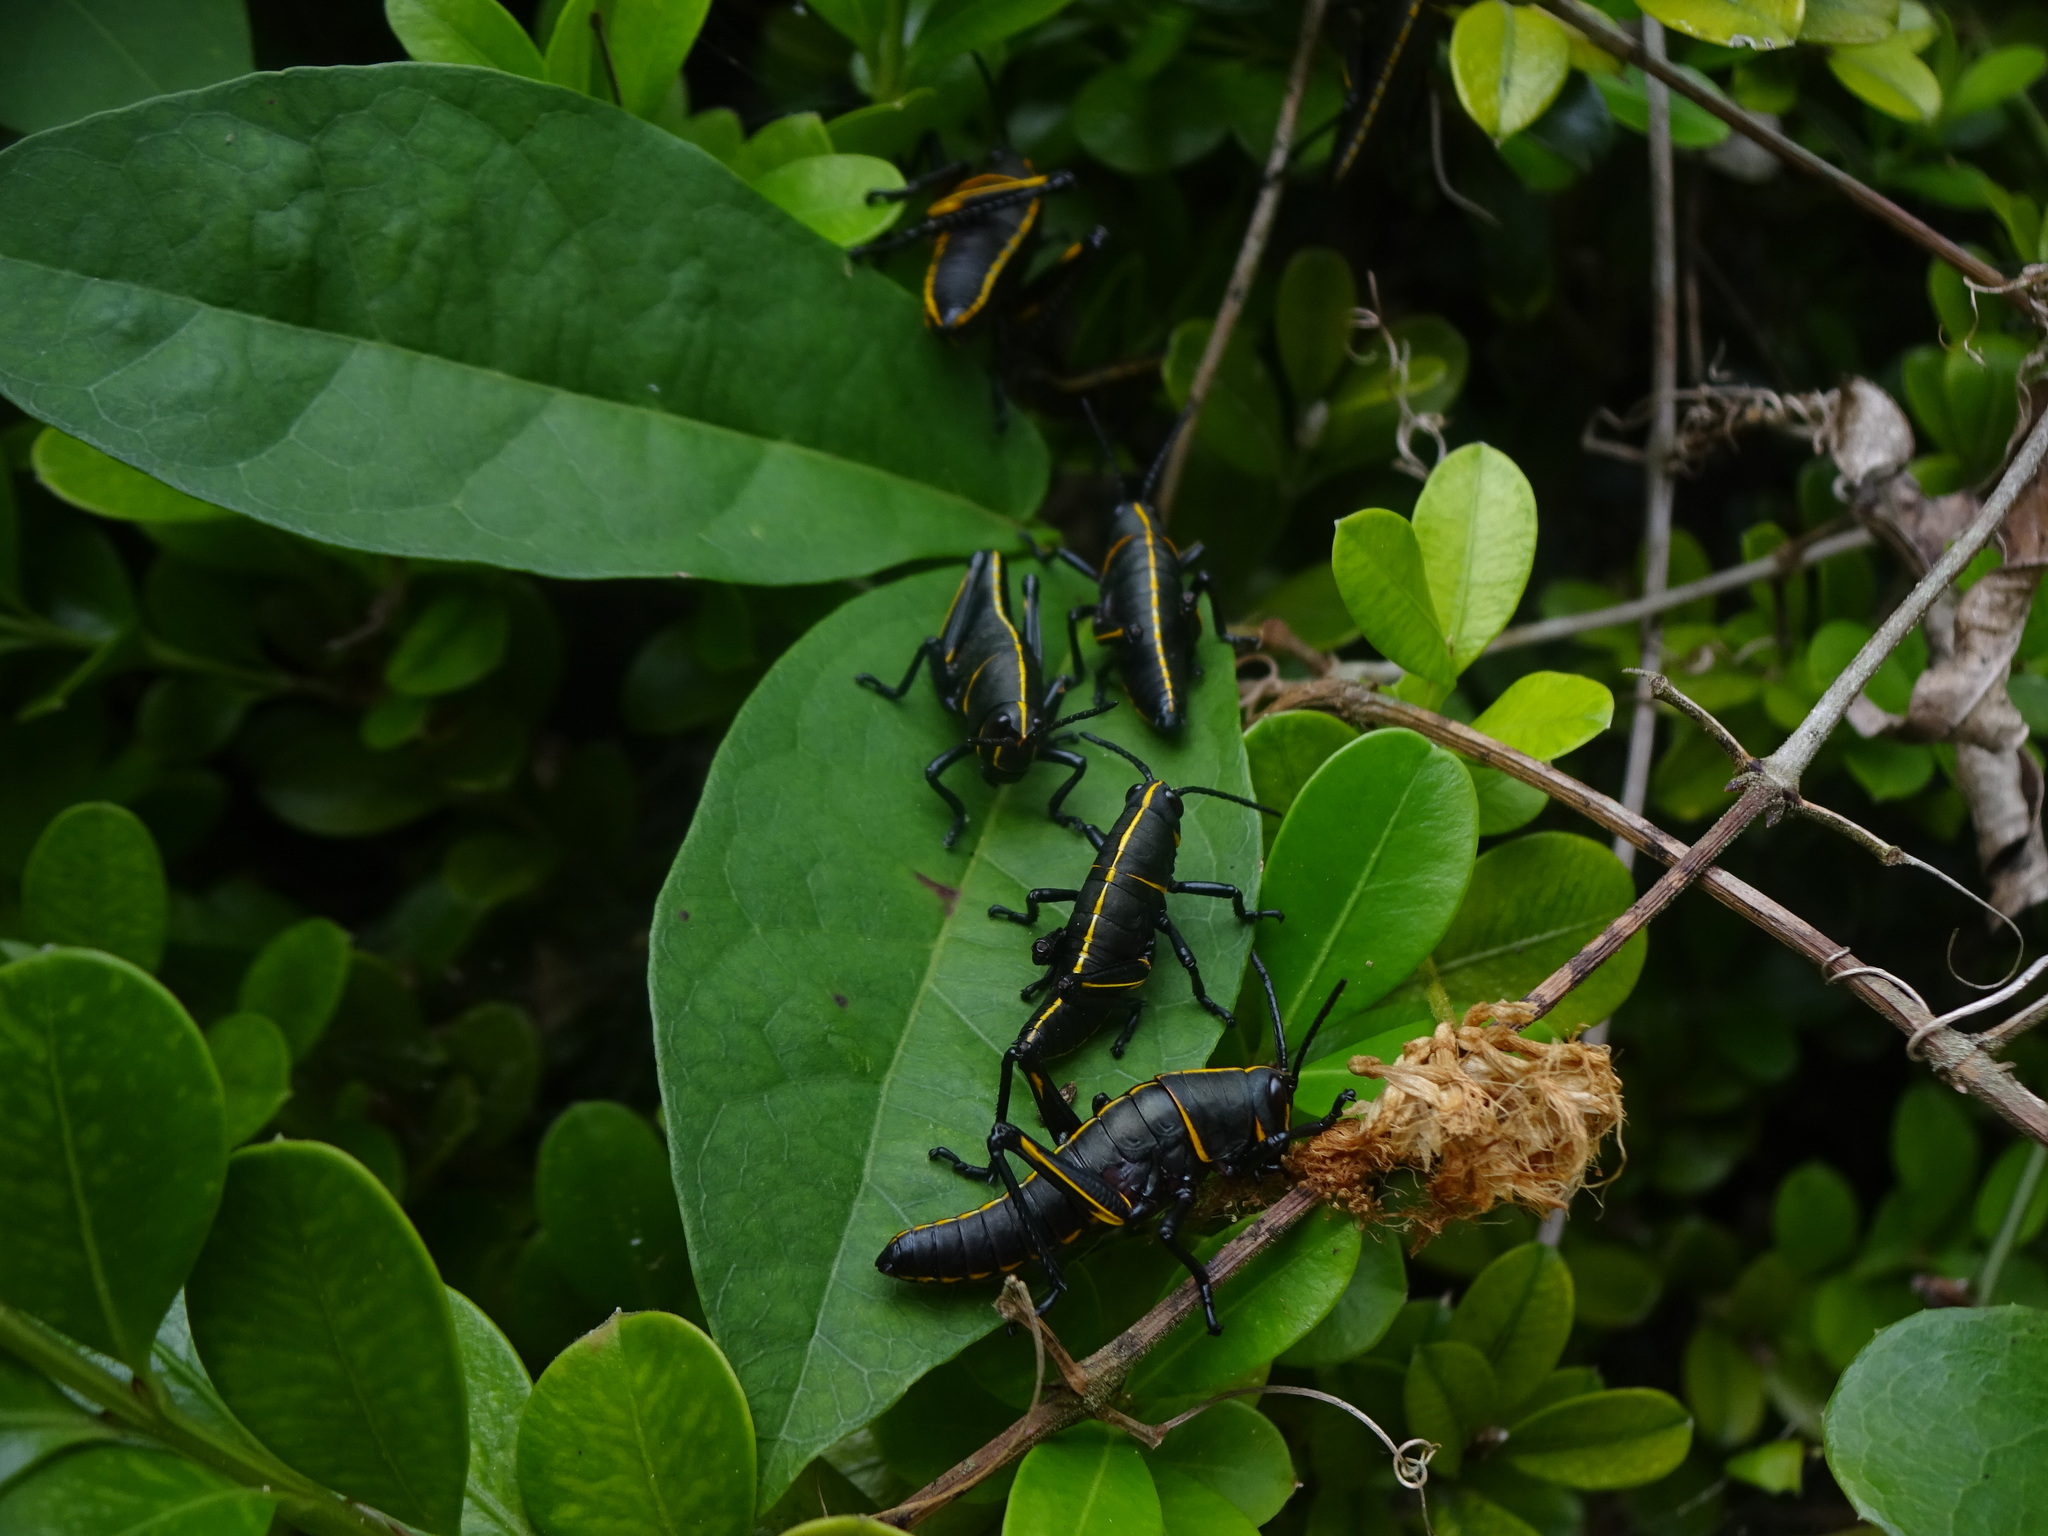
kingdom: Animalia
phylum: Arthropoda
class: Insecta
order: Orthoptera
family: Romaleidae
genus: Romalea
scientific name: Romalea microptera
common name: Eastern lubber grasshopper
